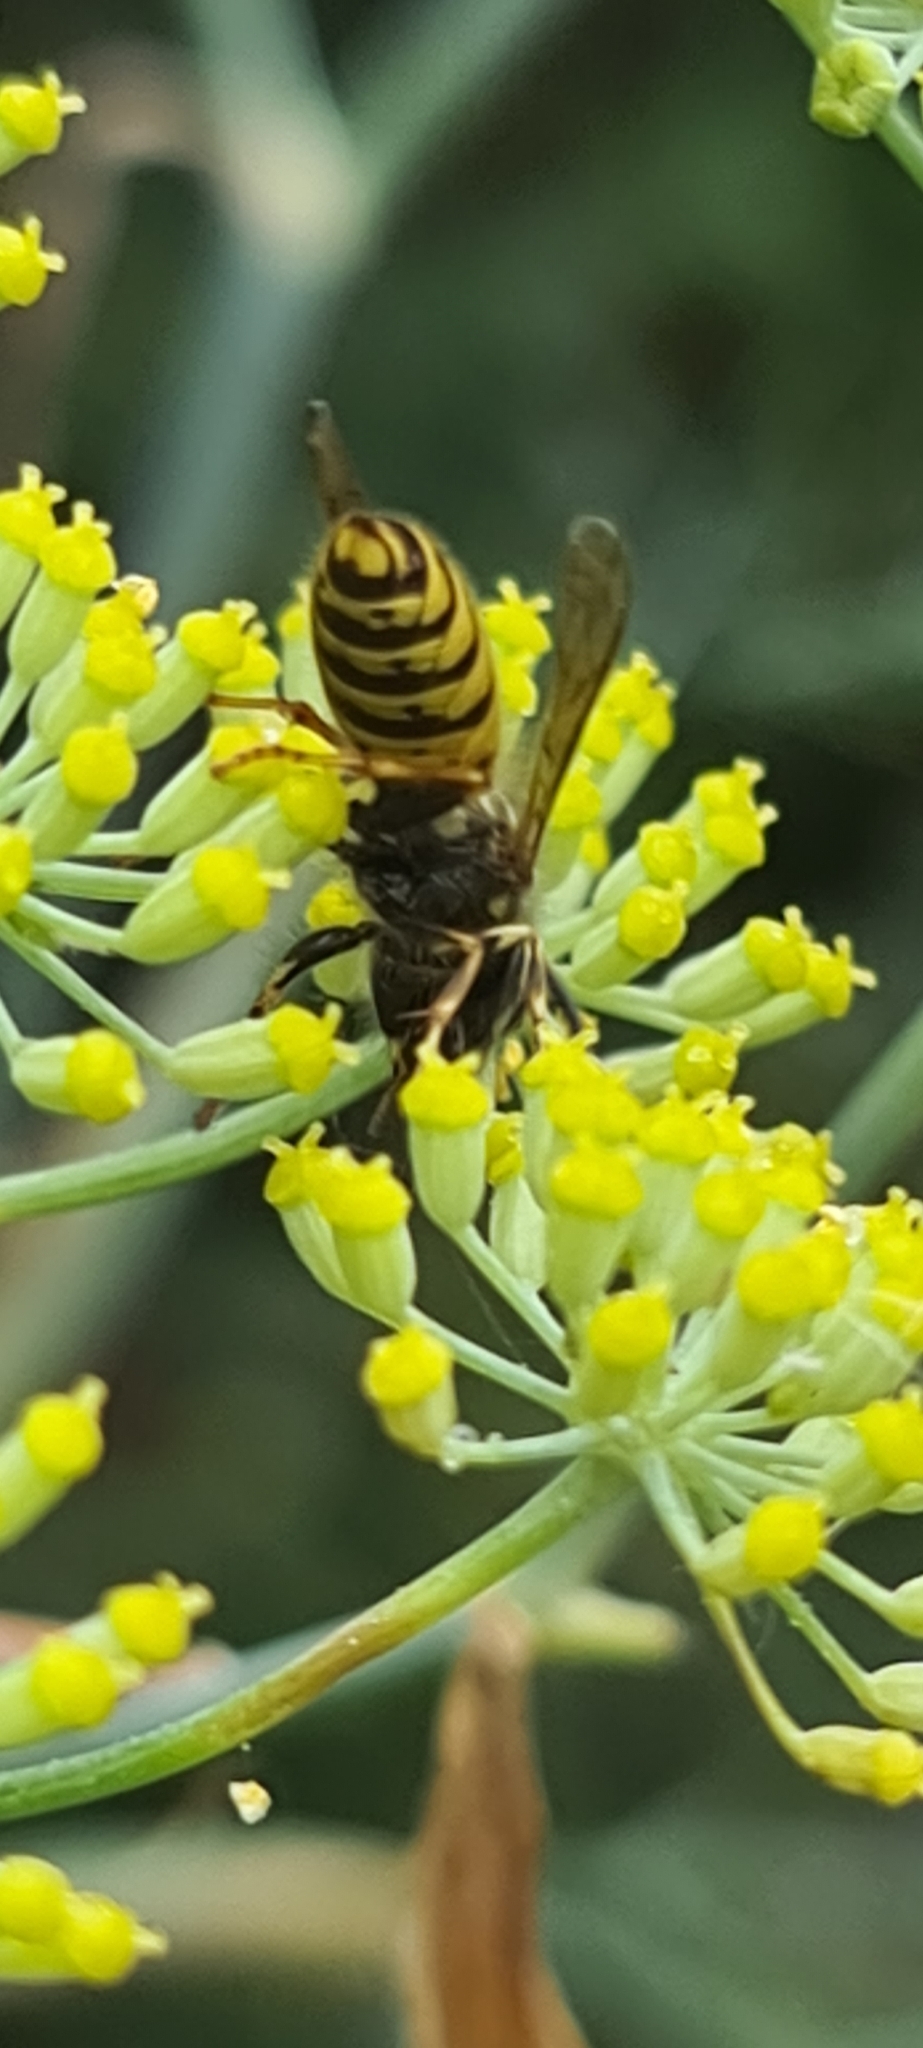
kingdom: Animalia
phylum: Arthropoda
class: Insecta
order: Hymenoptera
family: Vespidae
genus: Vespula
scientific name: Vespula vulgaris
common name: Common wasp
